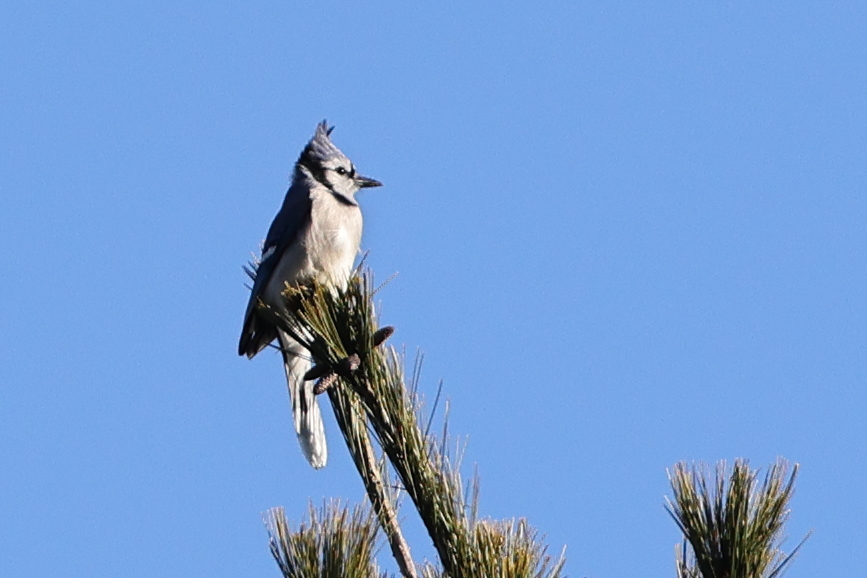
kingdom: Animalia
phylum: Chordata
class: Aves
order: Passeriformes
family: Corvidae
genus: Cyanocitta
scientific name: Cyanocitta cristata
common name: Blue jay
